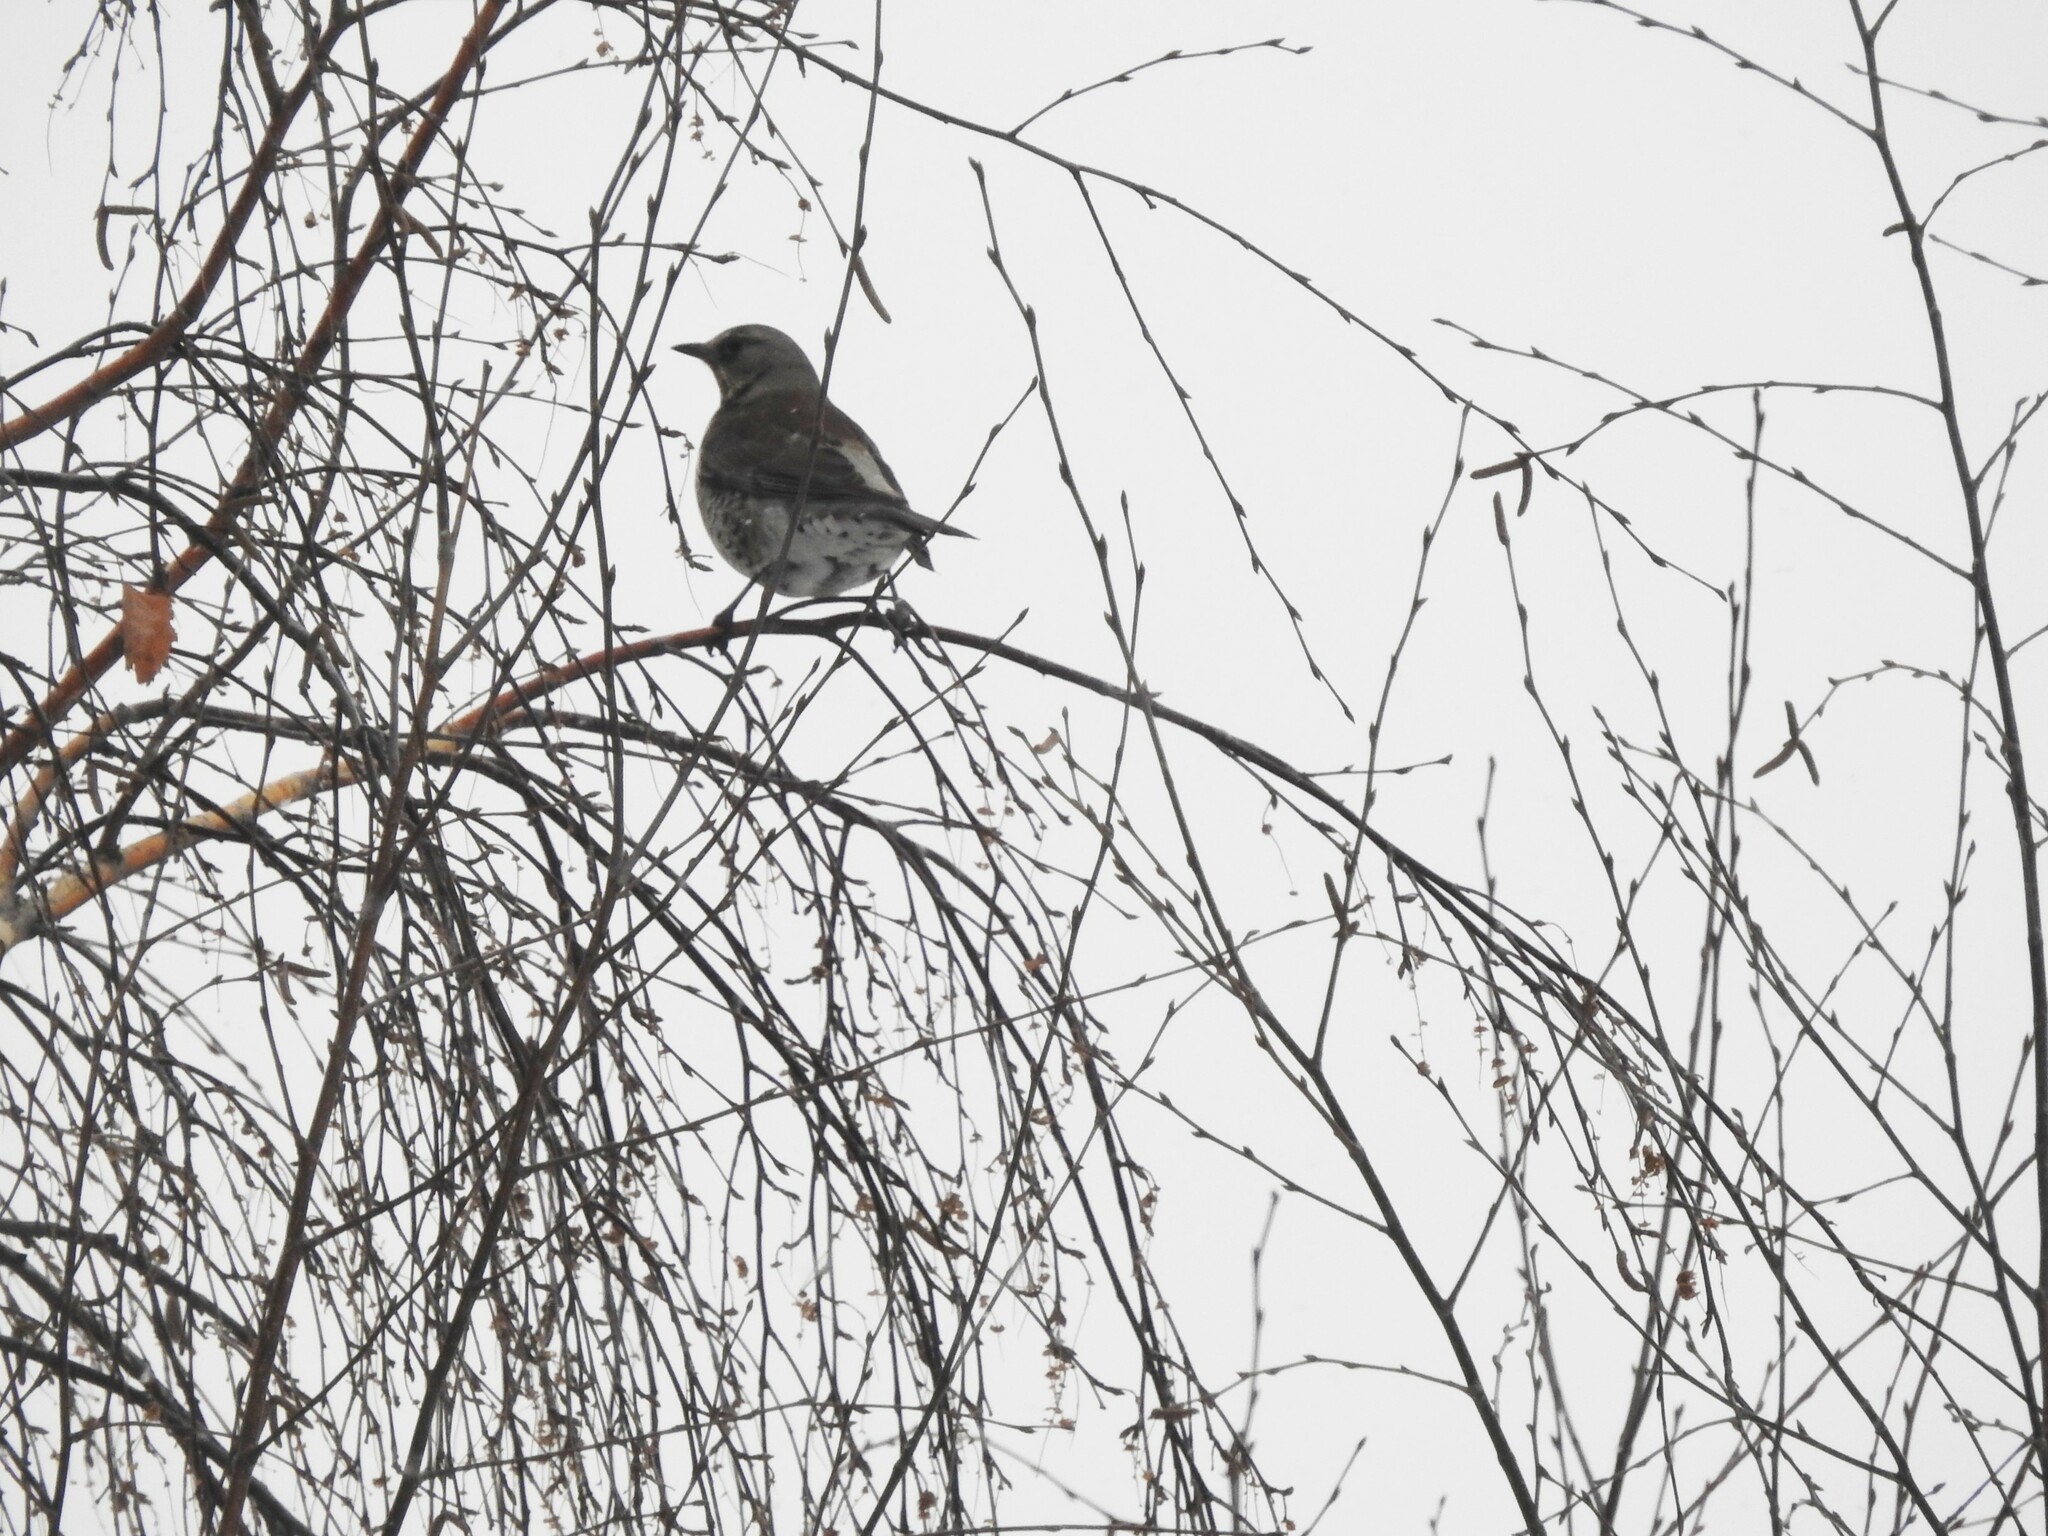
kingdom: Animalia
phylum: Chordata
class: Aves
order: Passeriformes
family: Turdidae
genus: Turdus
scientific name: Turdus pilaris
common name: Fieldfare
